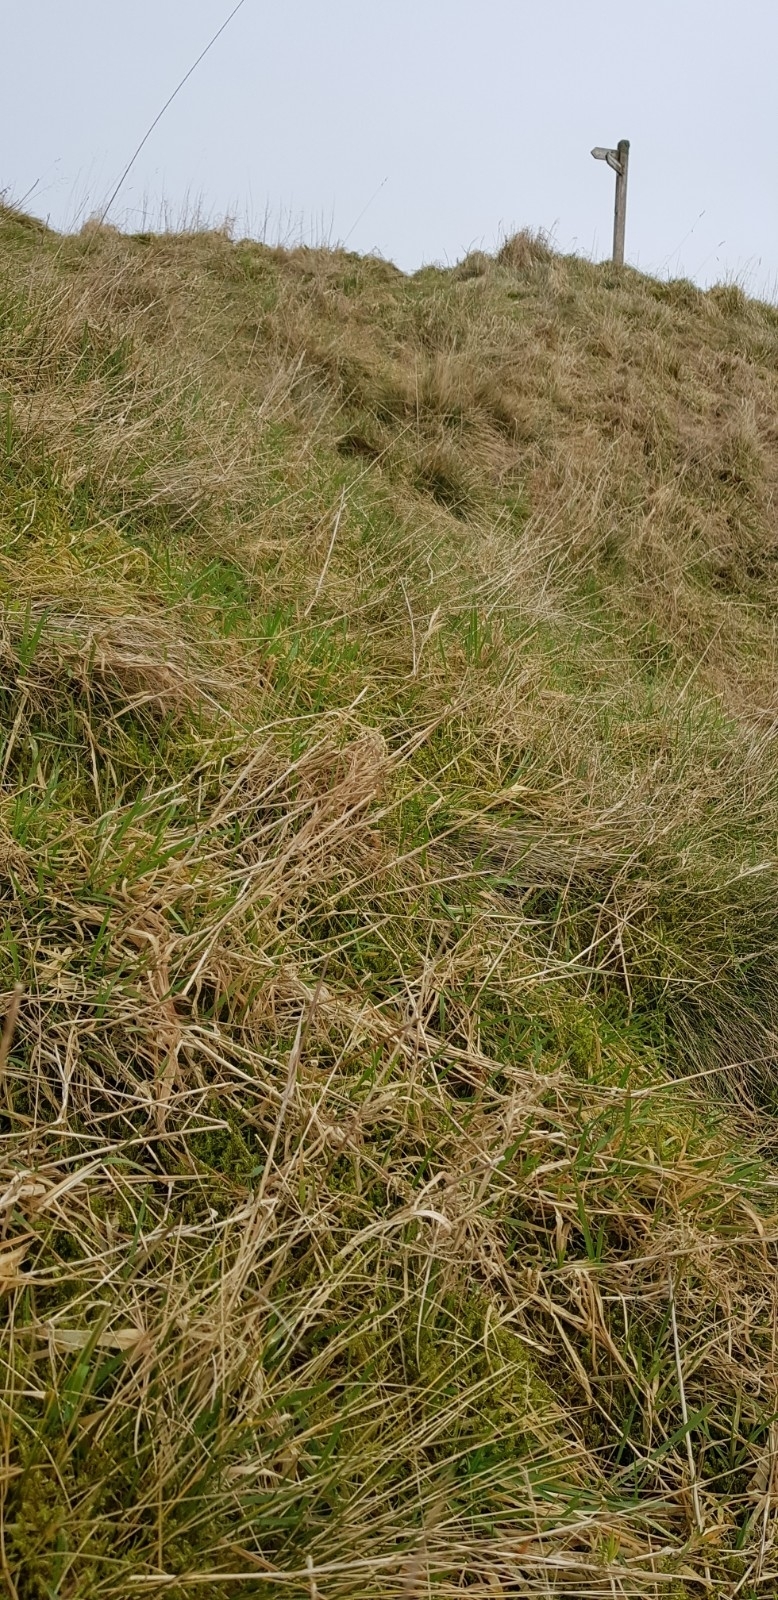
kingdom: Plantae
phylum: Bryophyta
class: Bryopsida
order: Hypnales
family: Hylocomiaceae
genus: Rhytidiadelphus
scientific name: Rhytidiadelphus squarrosus
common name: Springy turf-moss
